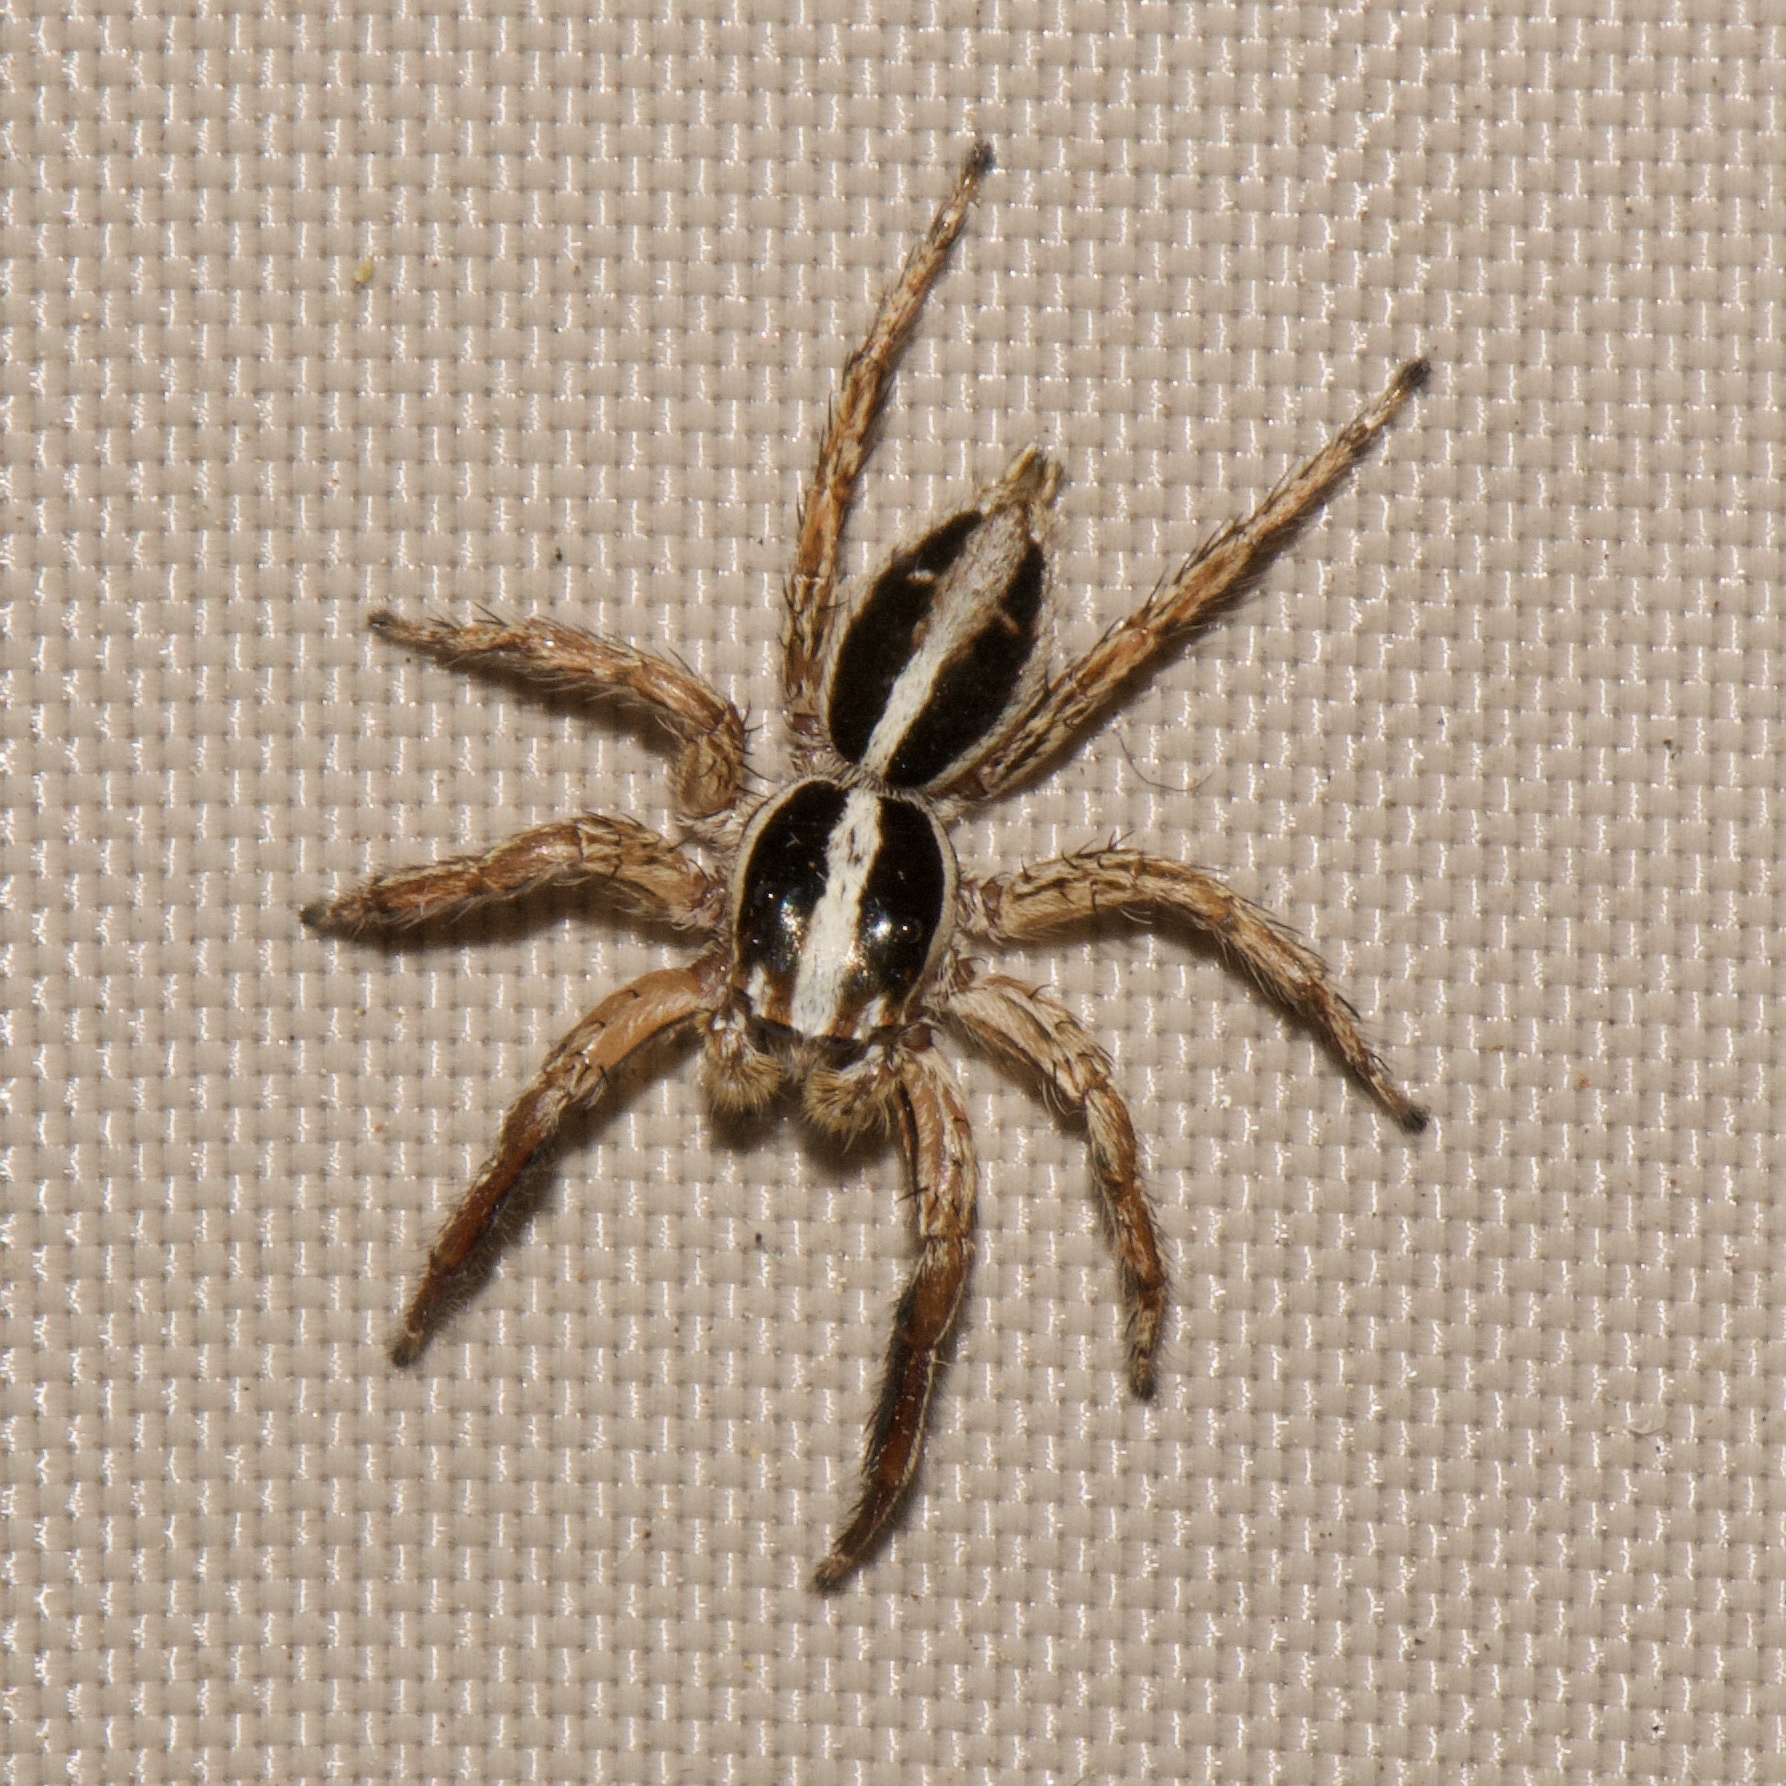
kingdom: Animalia
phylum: Arthropoda
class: Arachnida
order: Araneae
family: Salticidae
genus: Plexippus
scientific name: Plexippus paykulli
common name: Pantropical jumper
